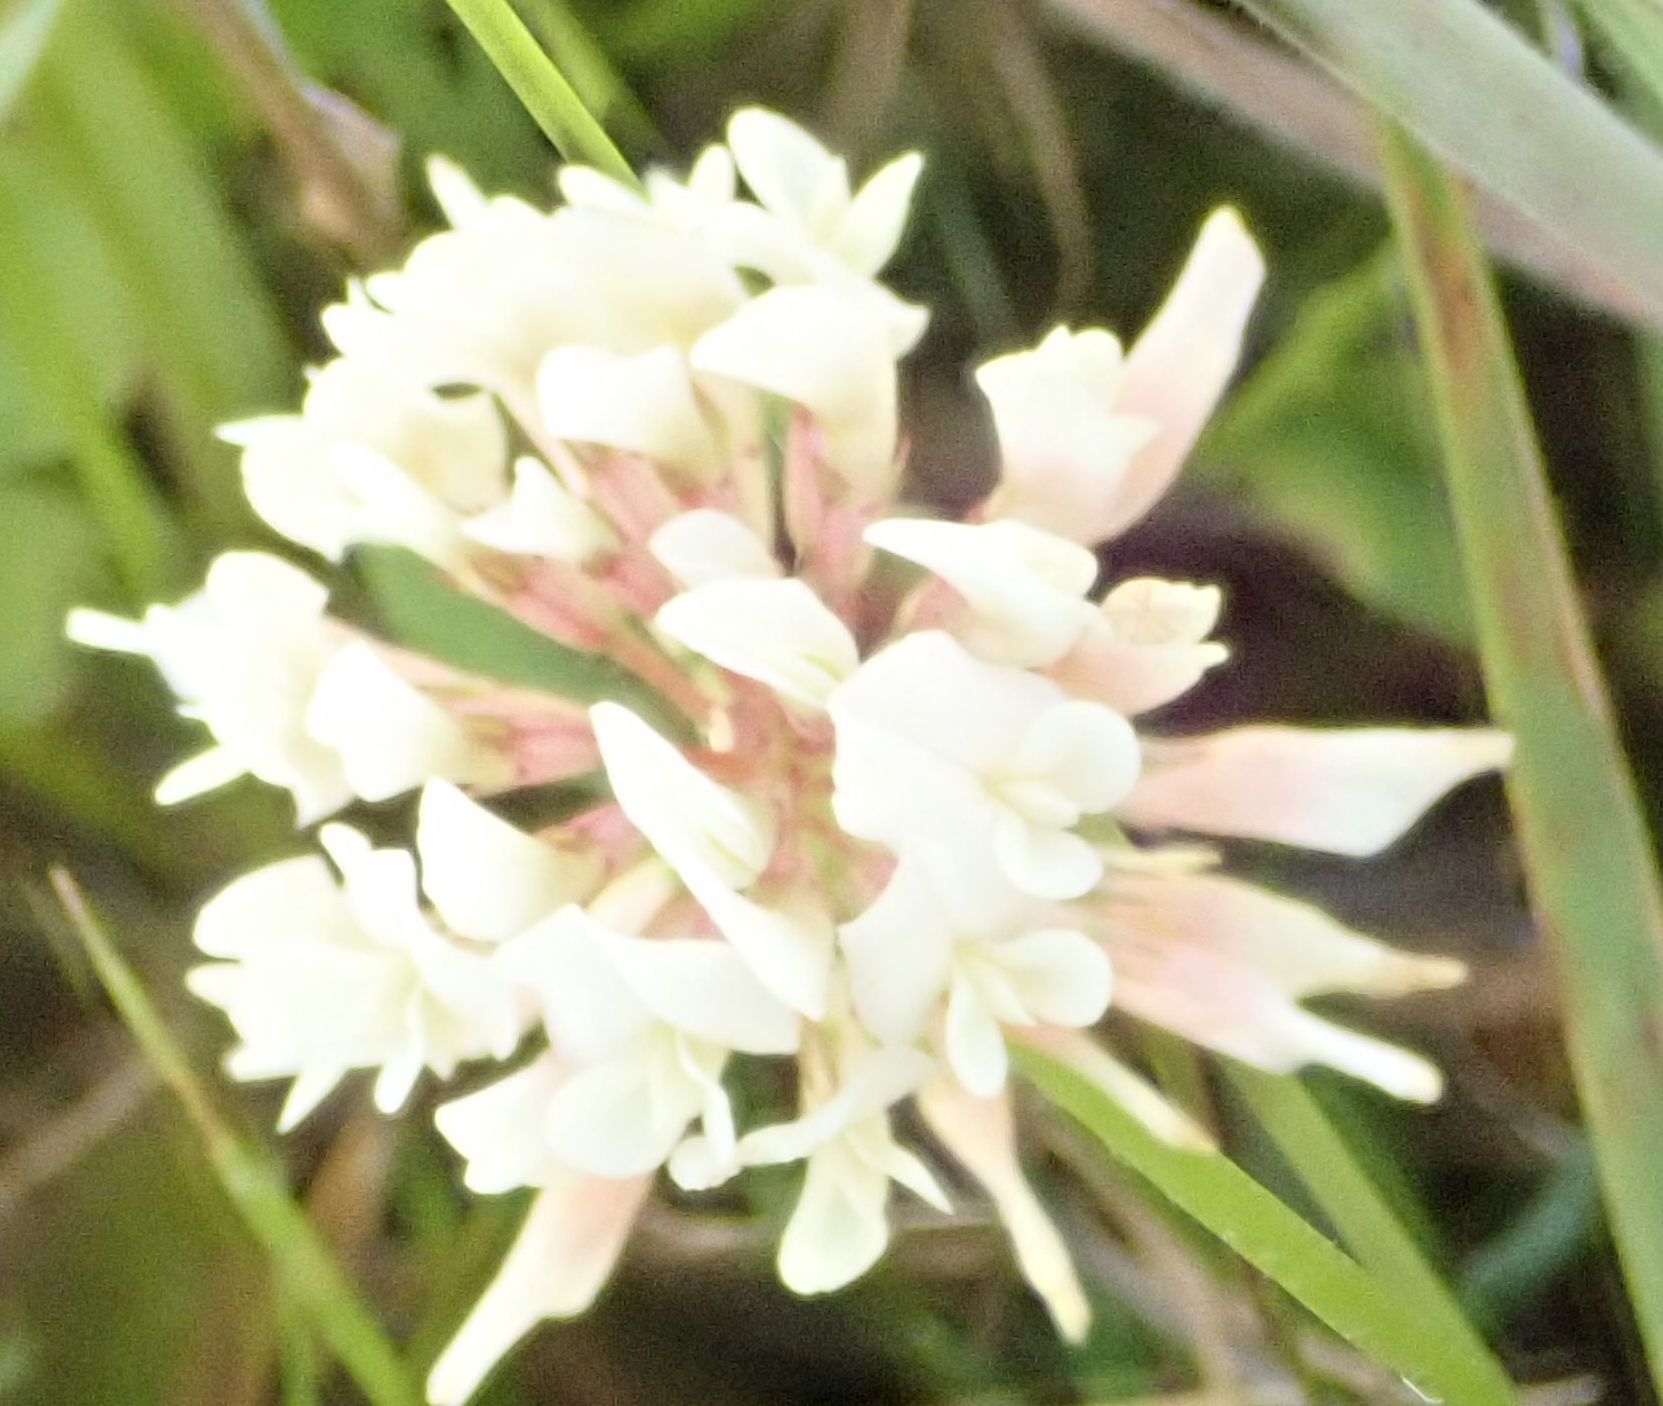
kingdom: Plantae
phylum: Tracheophyta
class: Magnoliopsida
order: Fabales
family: Fabaceae
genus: Trifolium
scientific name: Trifolium repens
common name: White clover
